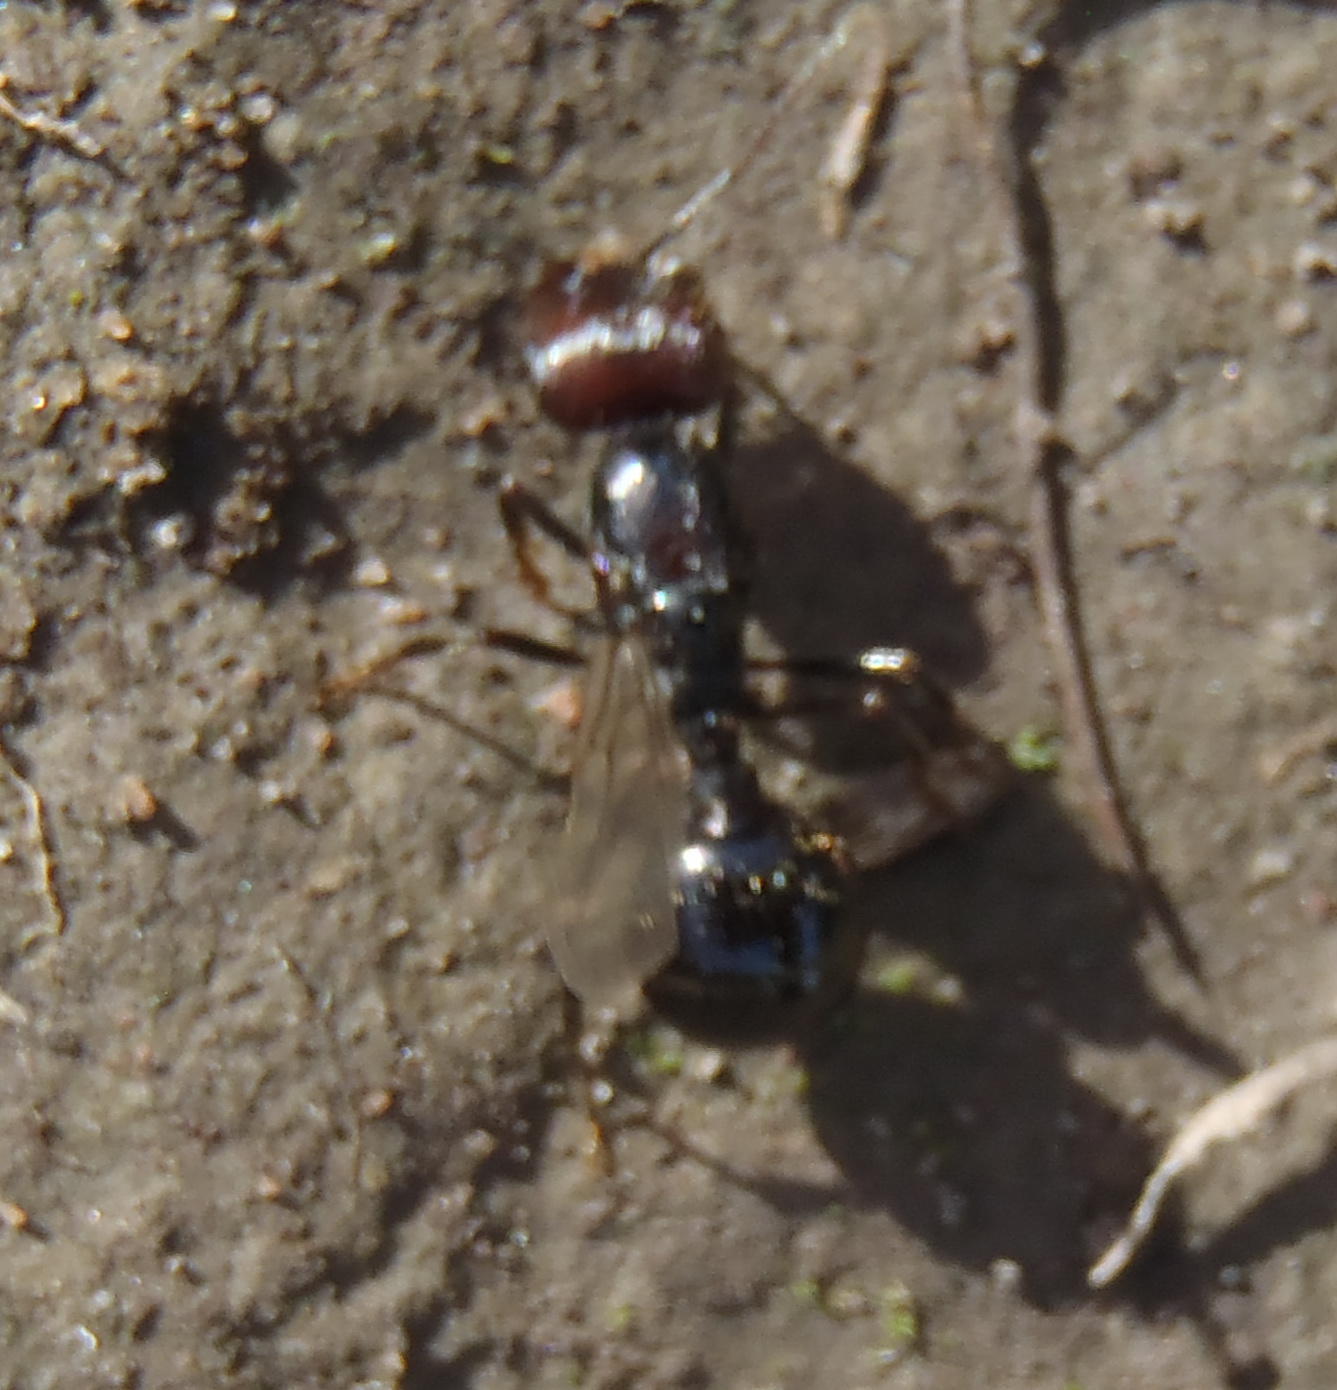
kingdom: Animalia
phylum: Arthropoda
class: Insecta
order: Hymenoptera
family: Formicidae
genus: Messor
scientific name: Messor striatifrons
